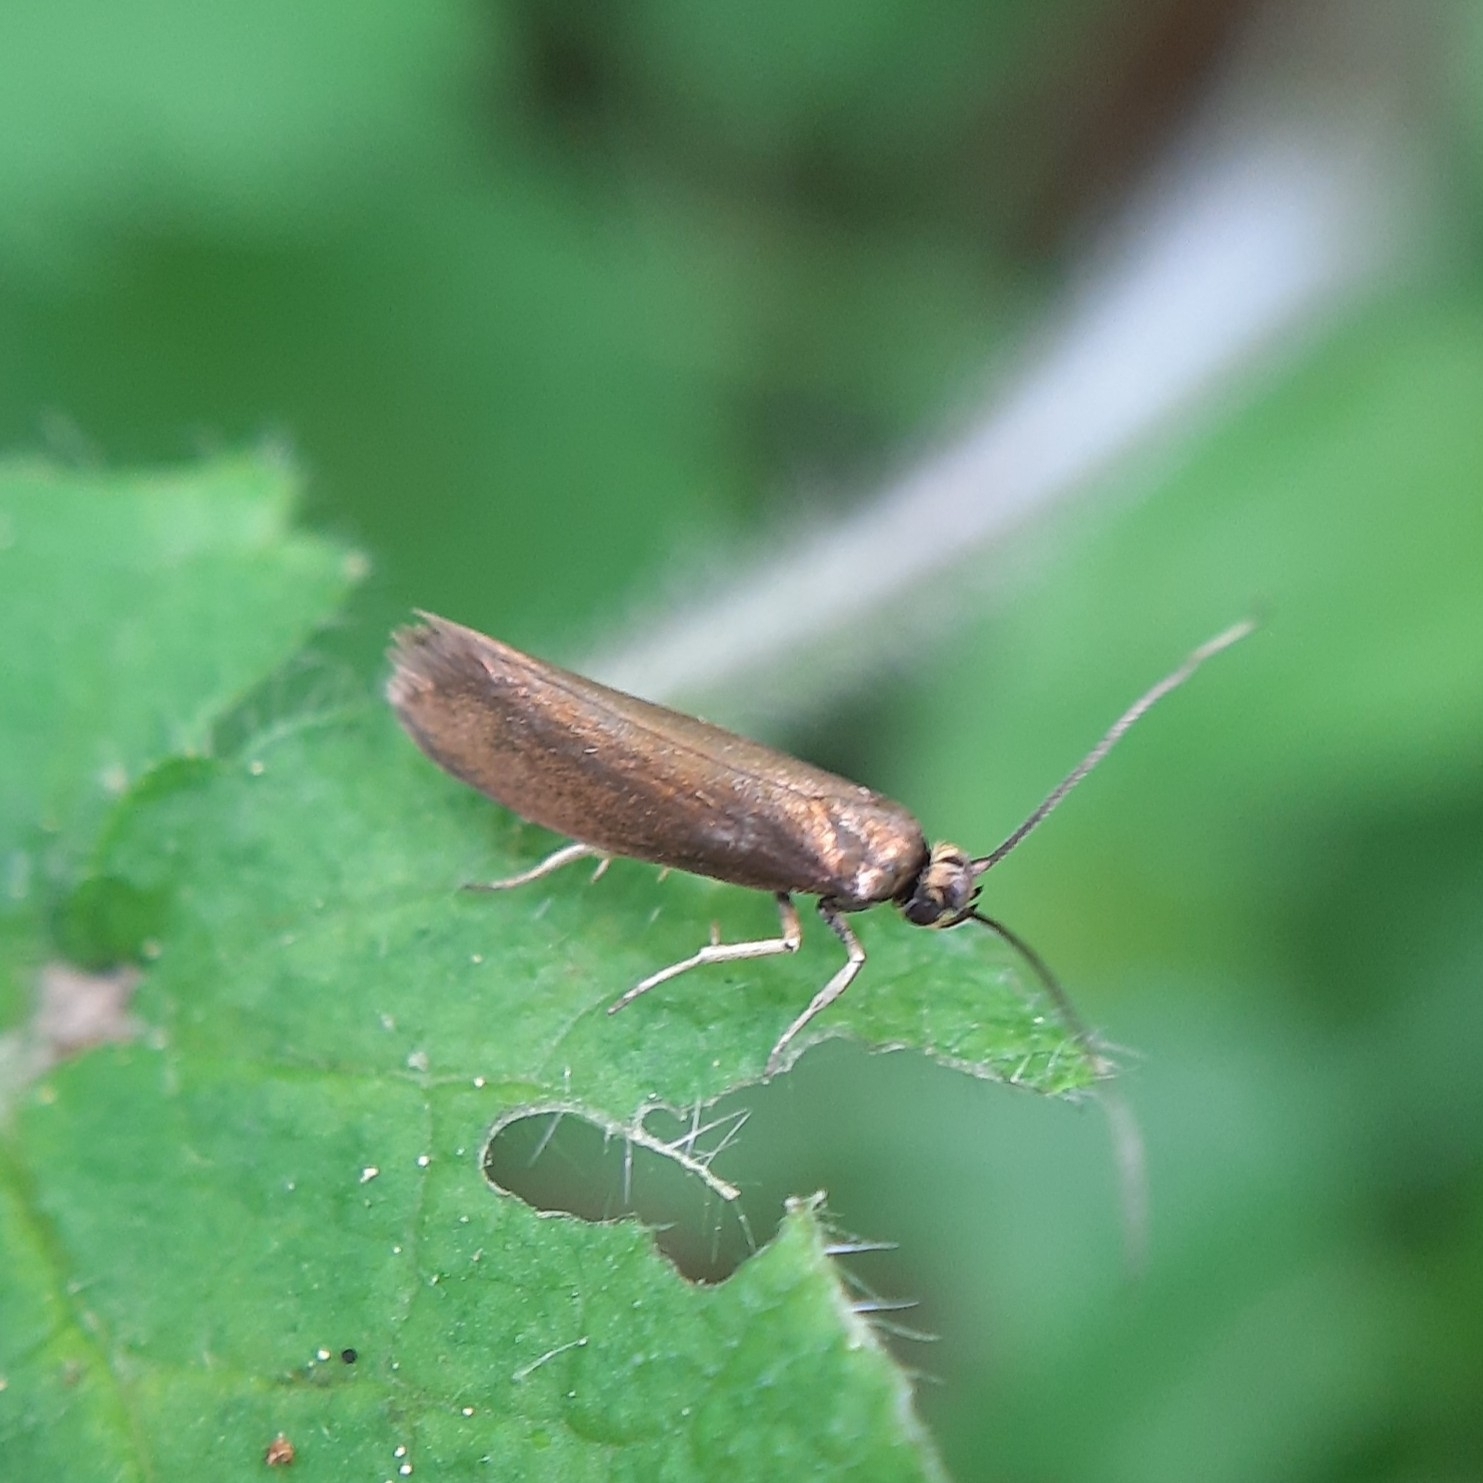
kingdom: Animalia
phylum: Arthropoda
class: Insecta
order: Lepidoptera
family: Roeslerstammiidae
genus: Roeslerstammia
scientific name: Roeslerstammia erxlebella
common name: Copper ermel
